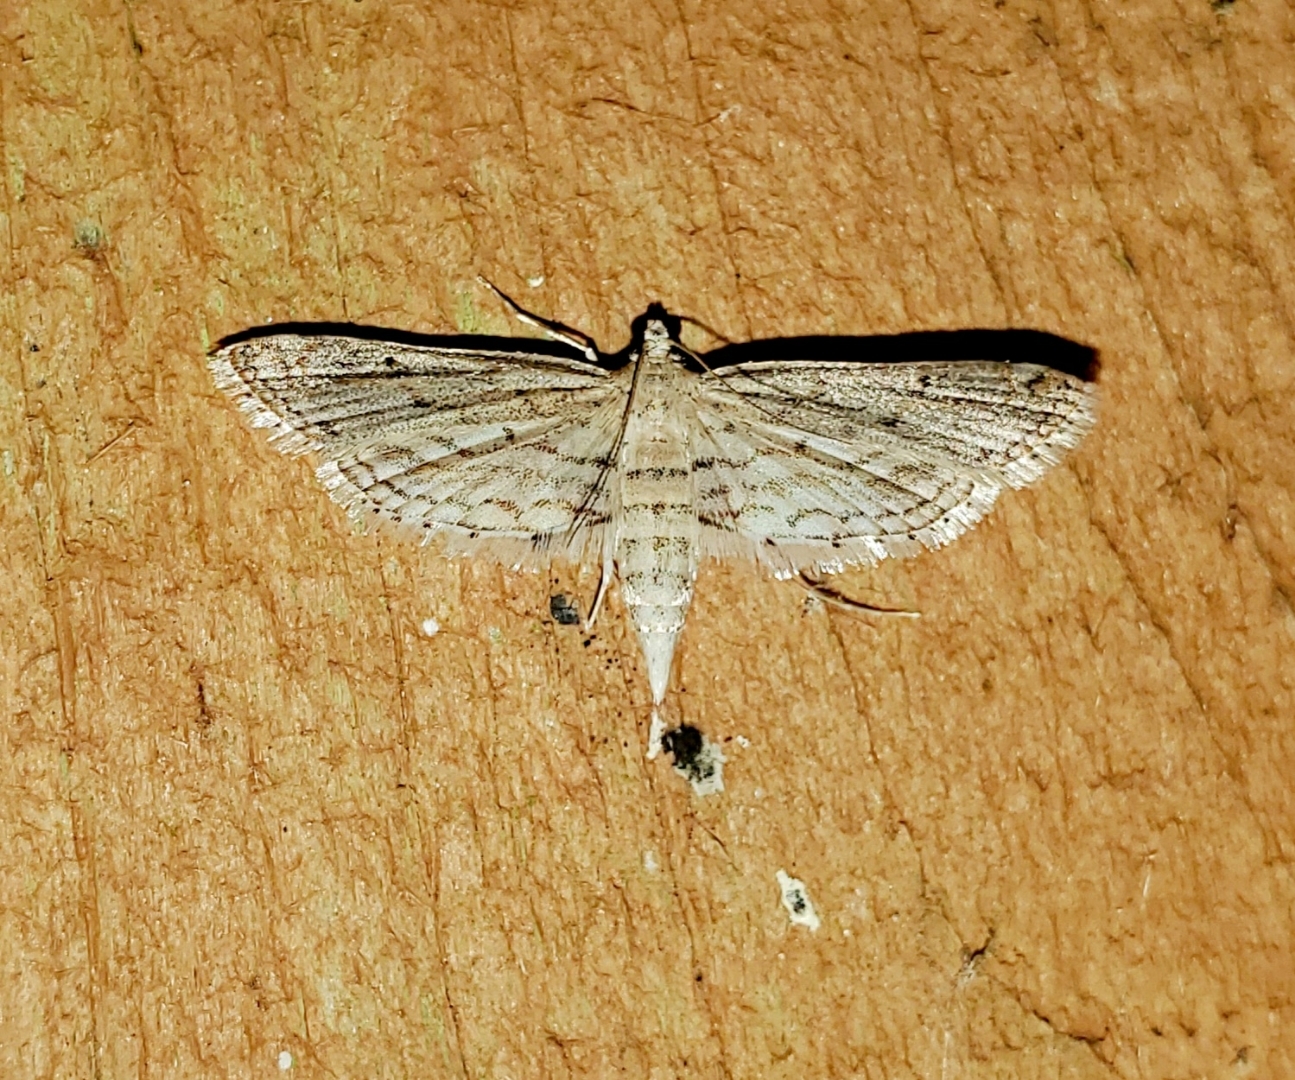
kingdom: Animalia
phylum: Arthropoda
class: Insecta
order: Lepidoptera
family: Crambidae
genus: Parapoynx
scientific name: Parapoynx allionealis
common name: Bladderwort casemaker
